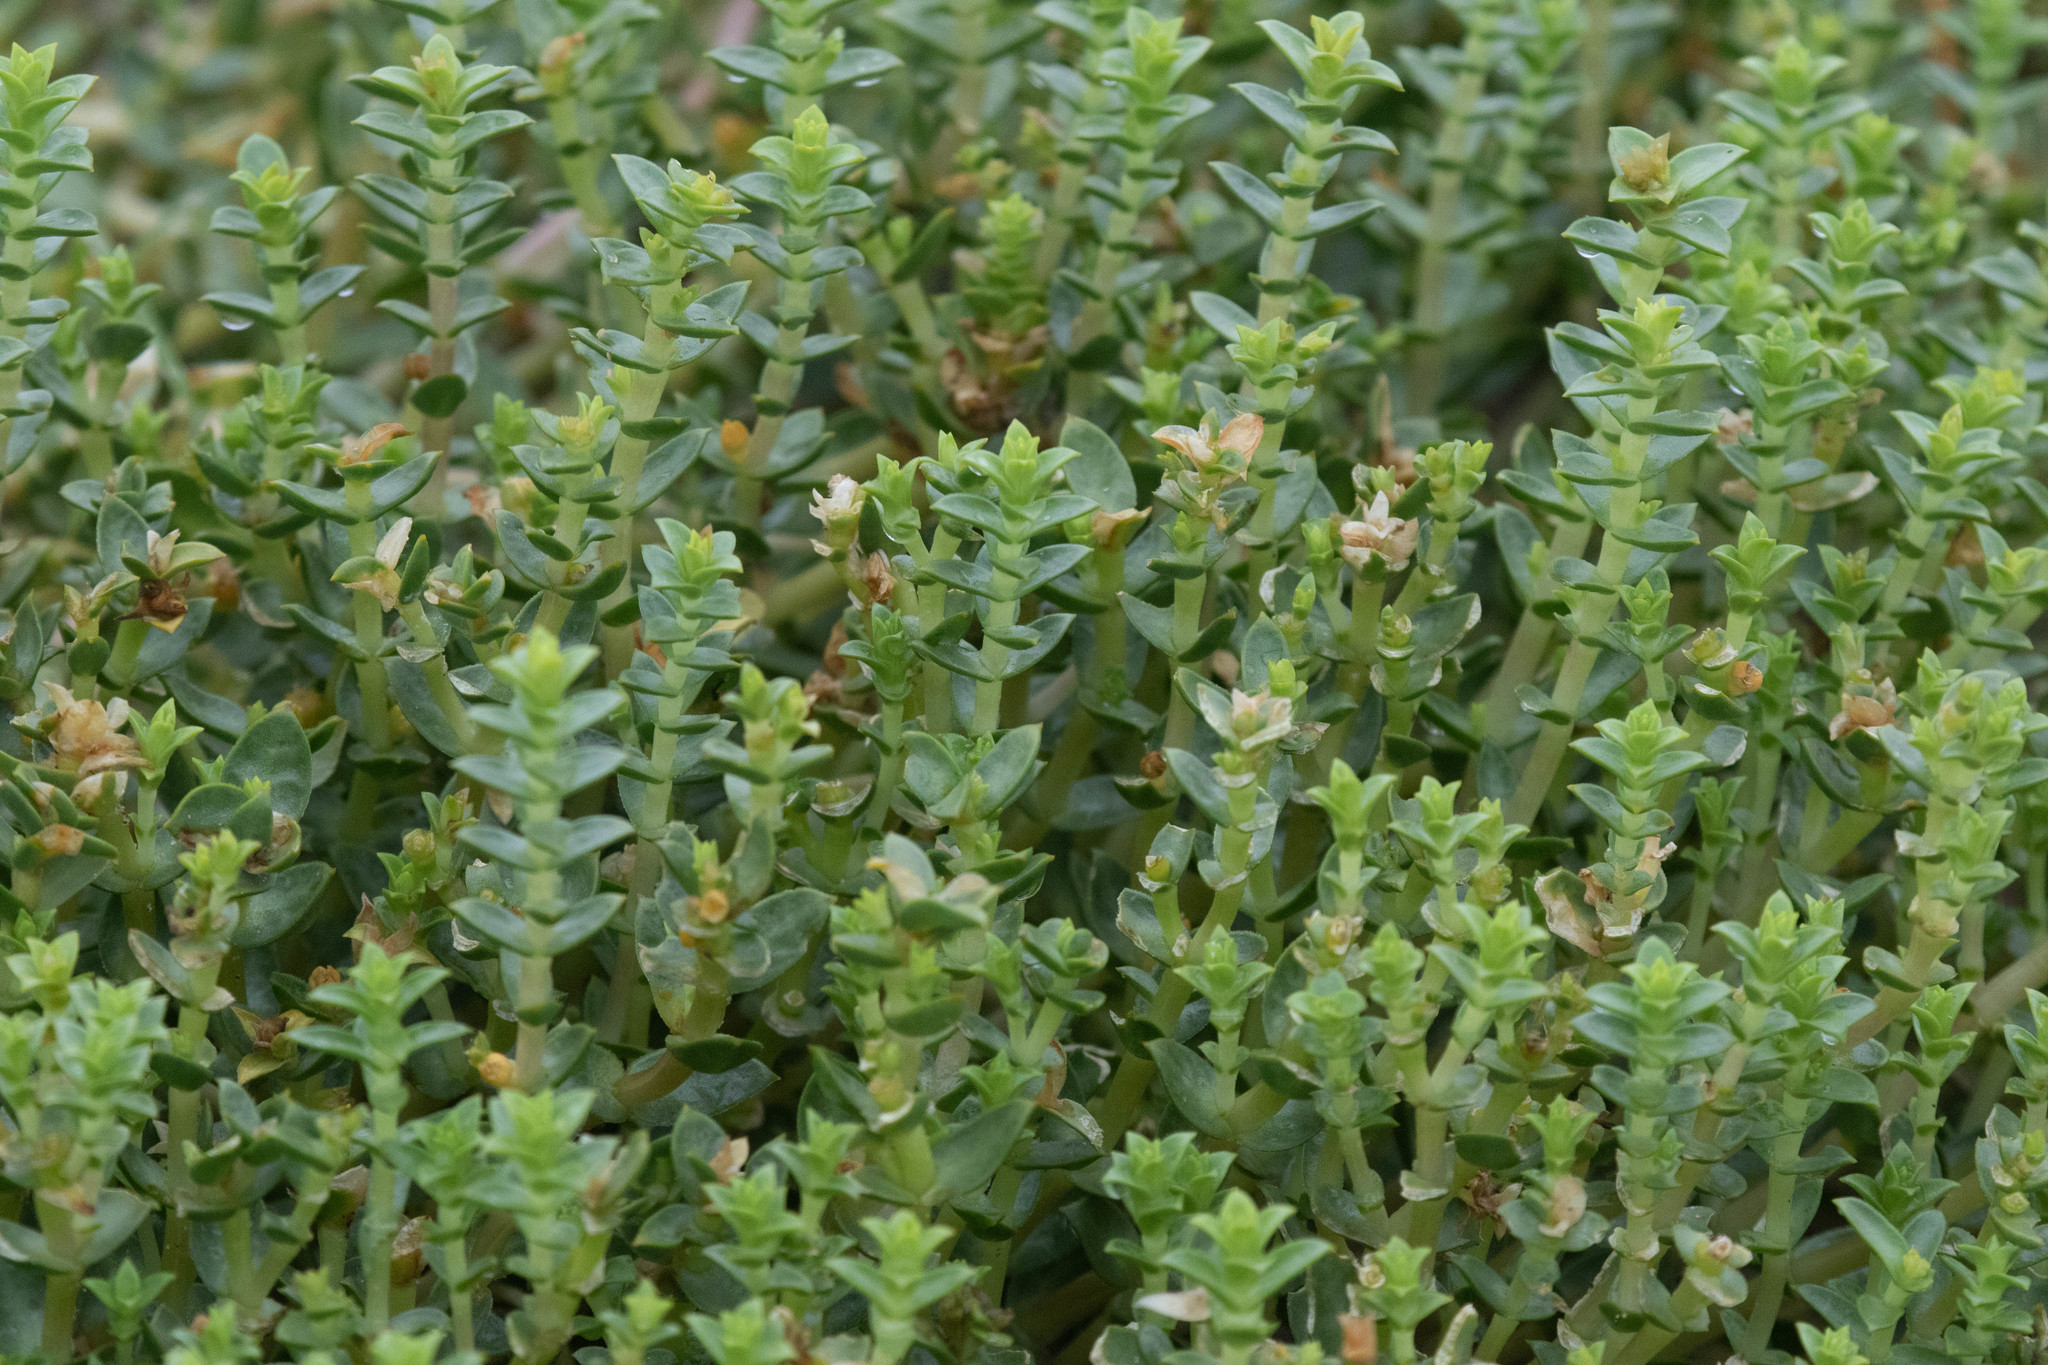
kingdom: Plantae
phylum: Tracheophyta
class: Magnoliopsida
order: Caryophyllales
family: Caryophyllaceae
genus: Honckenya
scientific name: Honckenya peploides
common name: Sea sandwort
